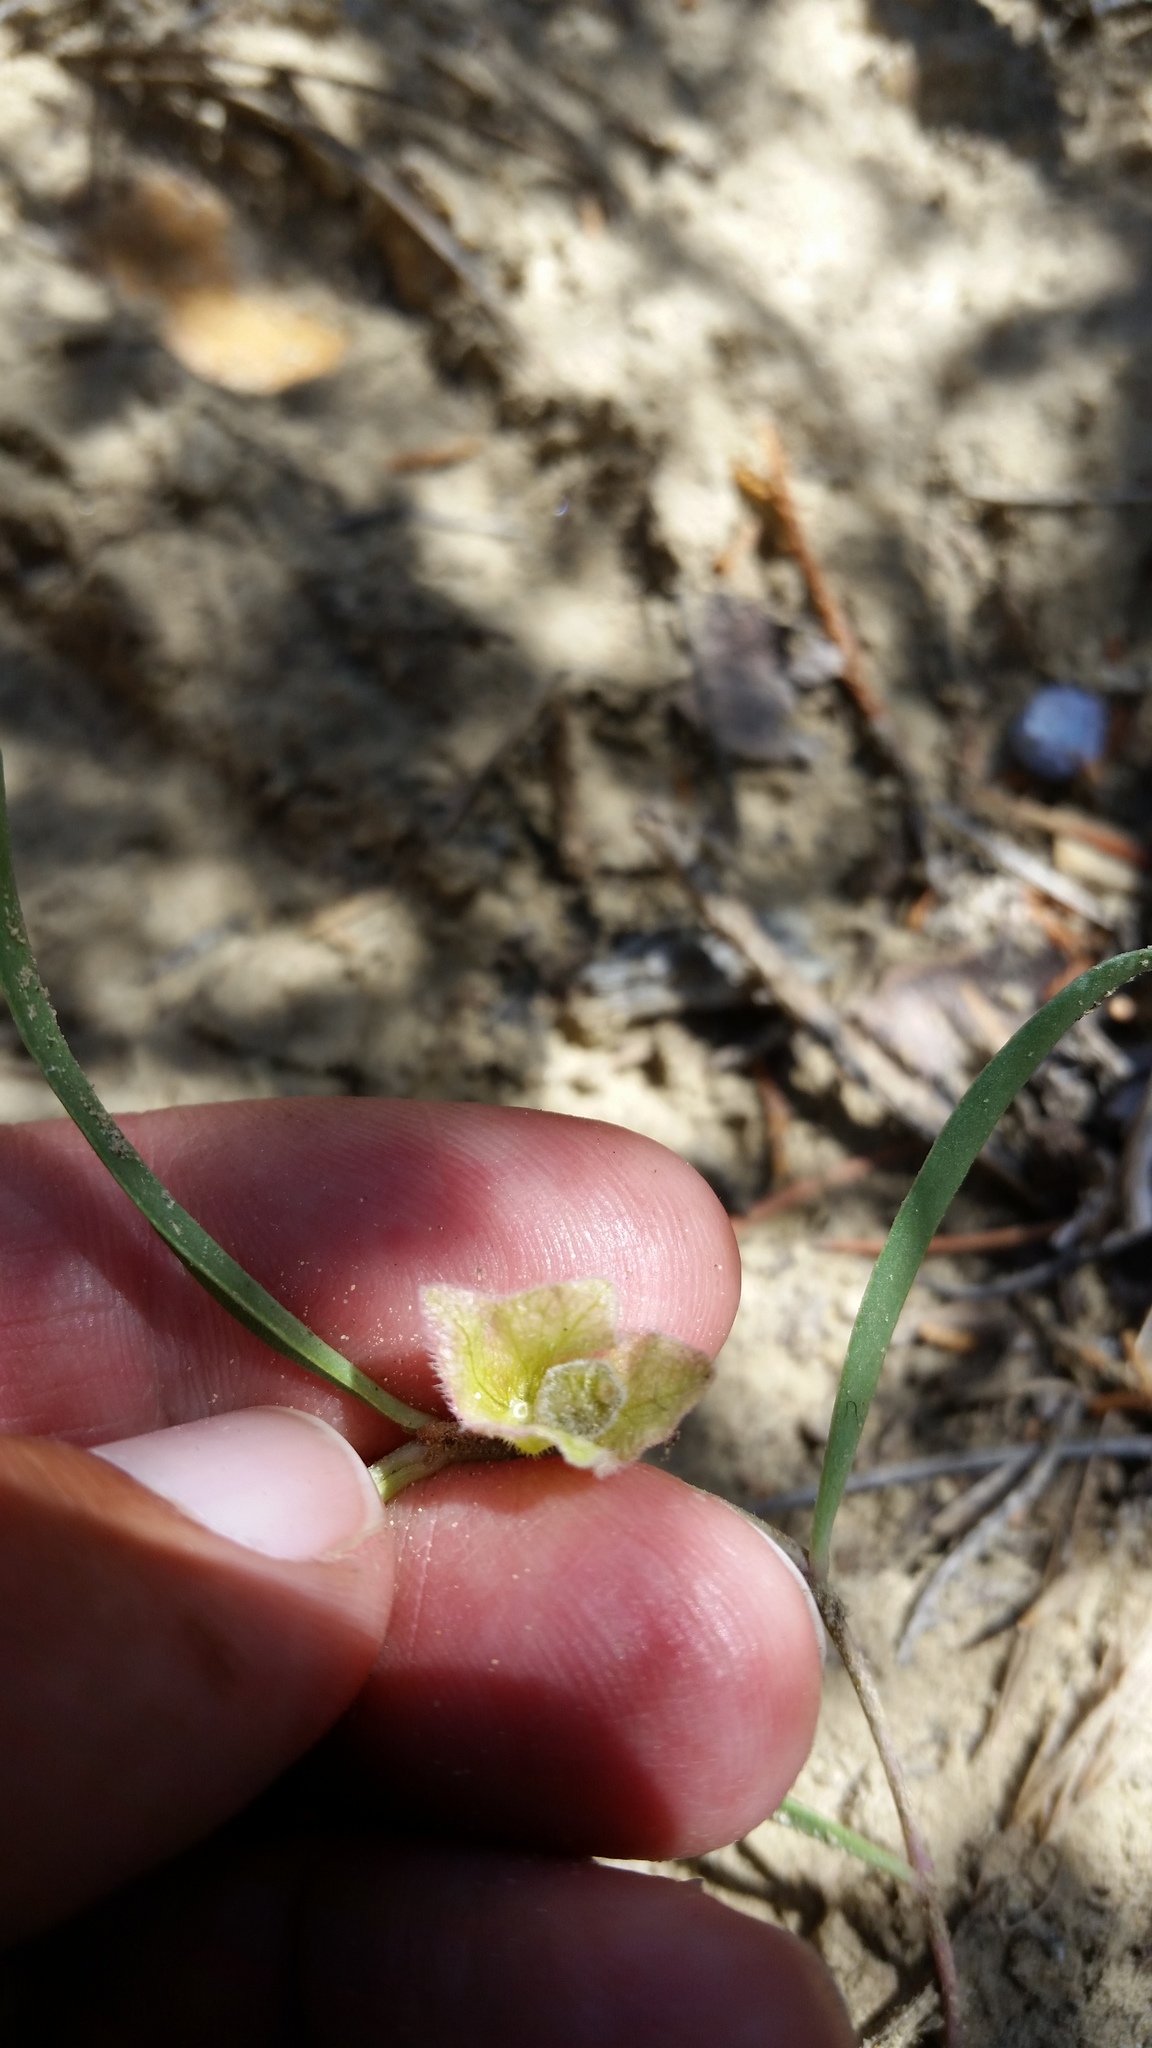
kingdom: Plantae
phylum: Tracheophyta
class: Magnoliopsida
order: Caryophyllales
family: Nyctaginaceae
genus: Mirabilis
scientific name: Mirabilis linearis
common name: Linear-leaved four-o'clock
